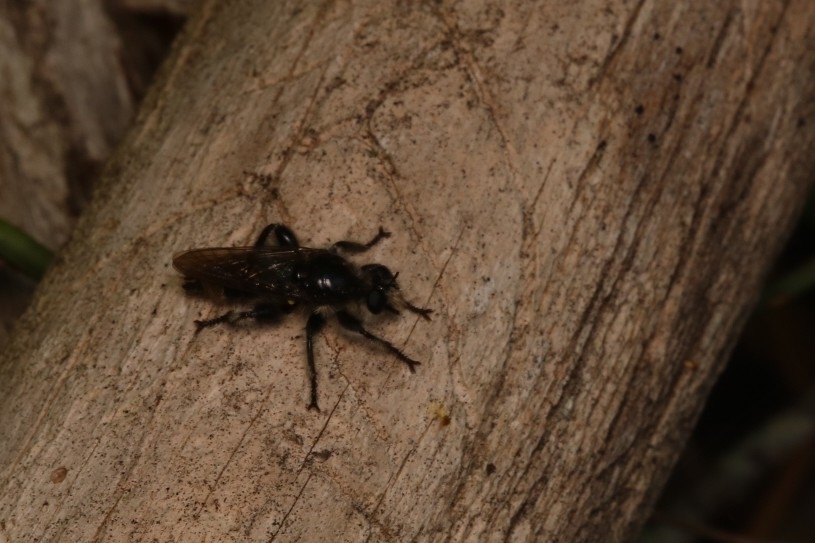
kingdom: Animalia
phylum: Arthropoda
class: Insecta
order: Diptera
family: Asilidae
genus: Laphria
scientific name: Laphria cinerea
